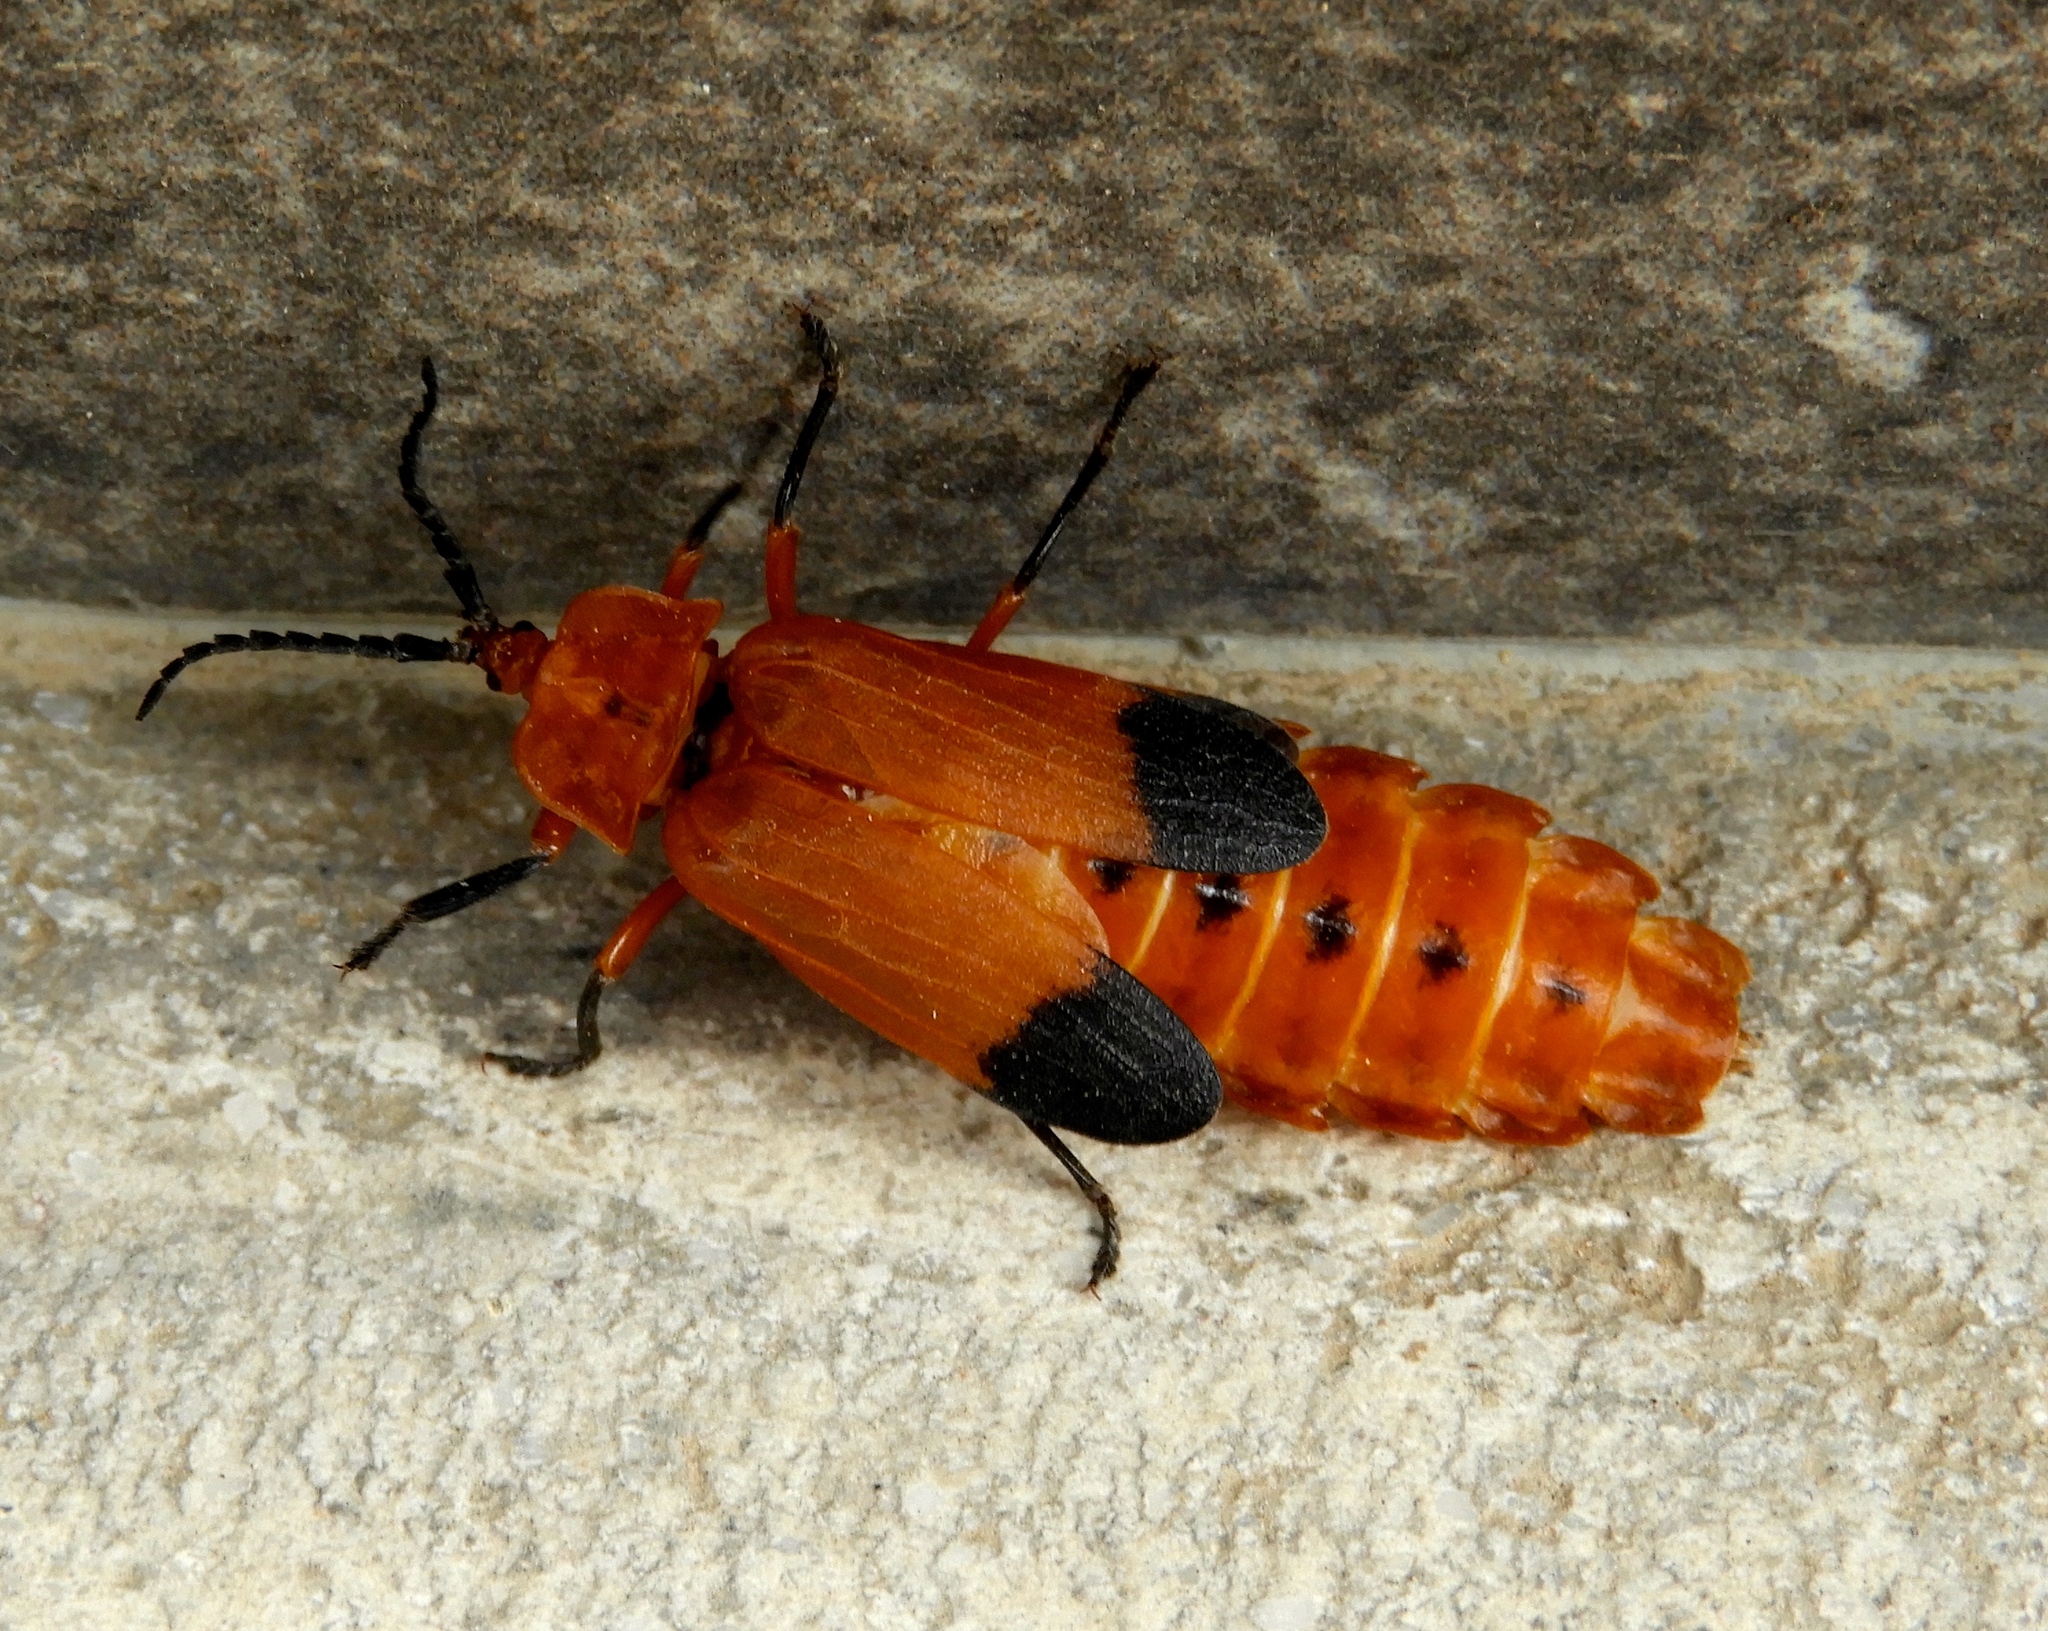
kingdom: Animalia
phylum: Arthropoda
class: Insecta
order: Coleoptera
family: Lycidae
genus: Lycus
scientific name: Lycus
